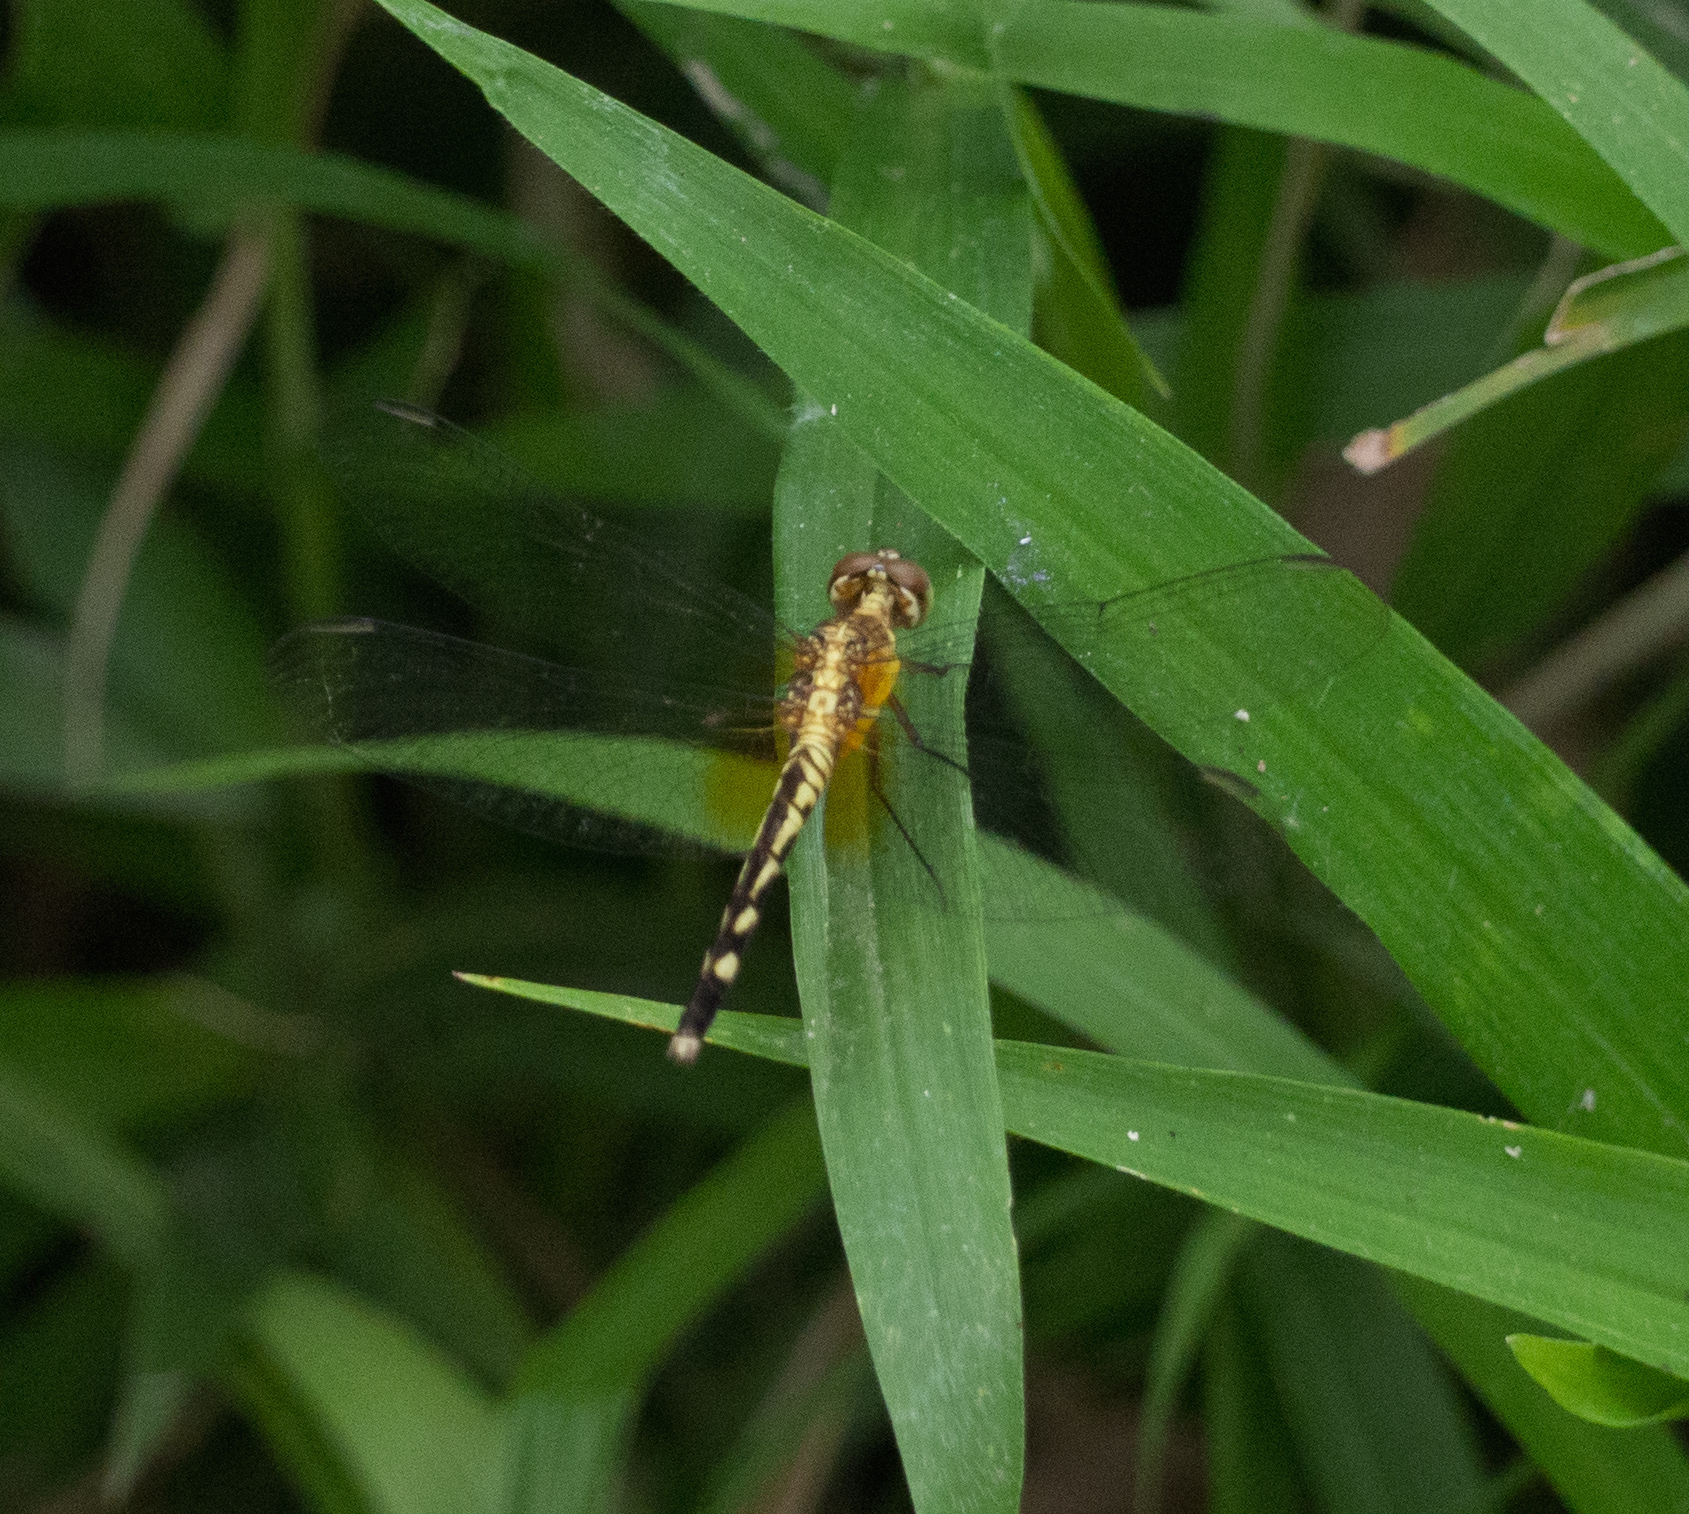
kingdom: Animalia
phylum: Arthropoda
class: Insecta
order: Odonata
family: Libellulidae
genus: Erythrodiplax
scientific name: Erythrodiplax fervida
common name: Red-mantled dragonlet
